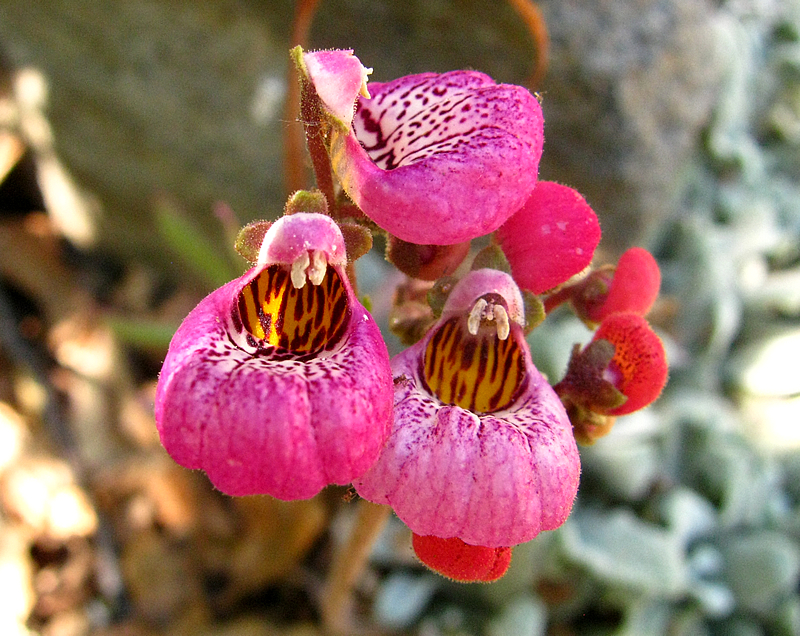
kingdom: Plantae
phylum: Tracheophyta
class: Magnoliopsida
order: Lamiales
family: Calceolariaceae
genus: Calceolaria
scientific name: Calceolaria cana
